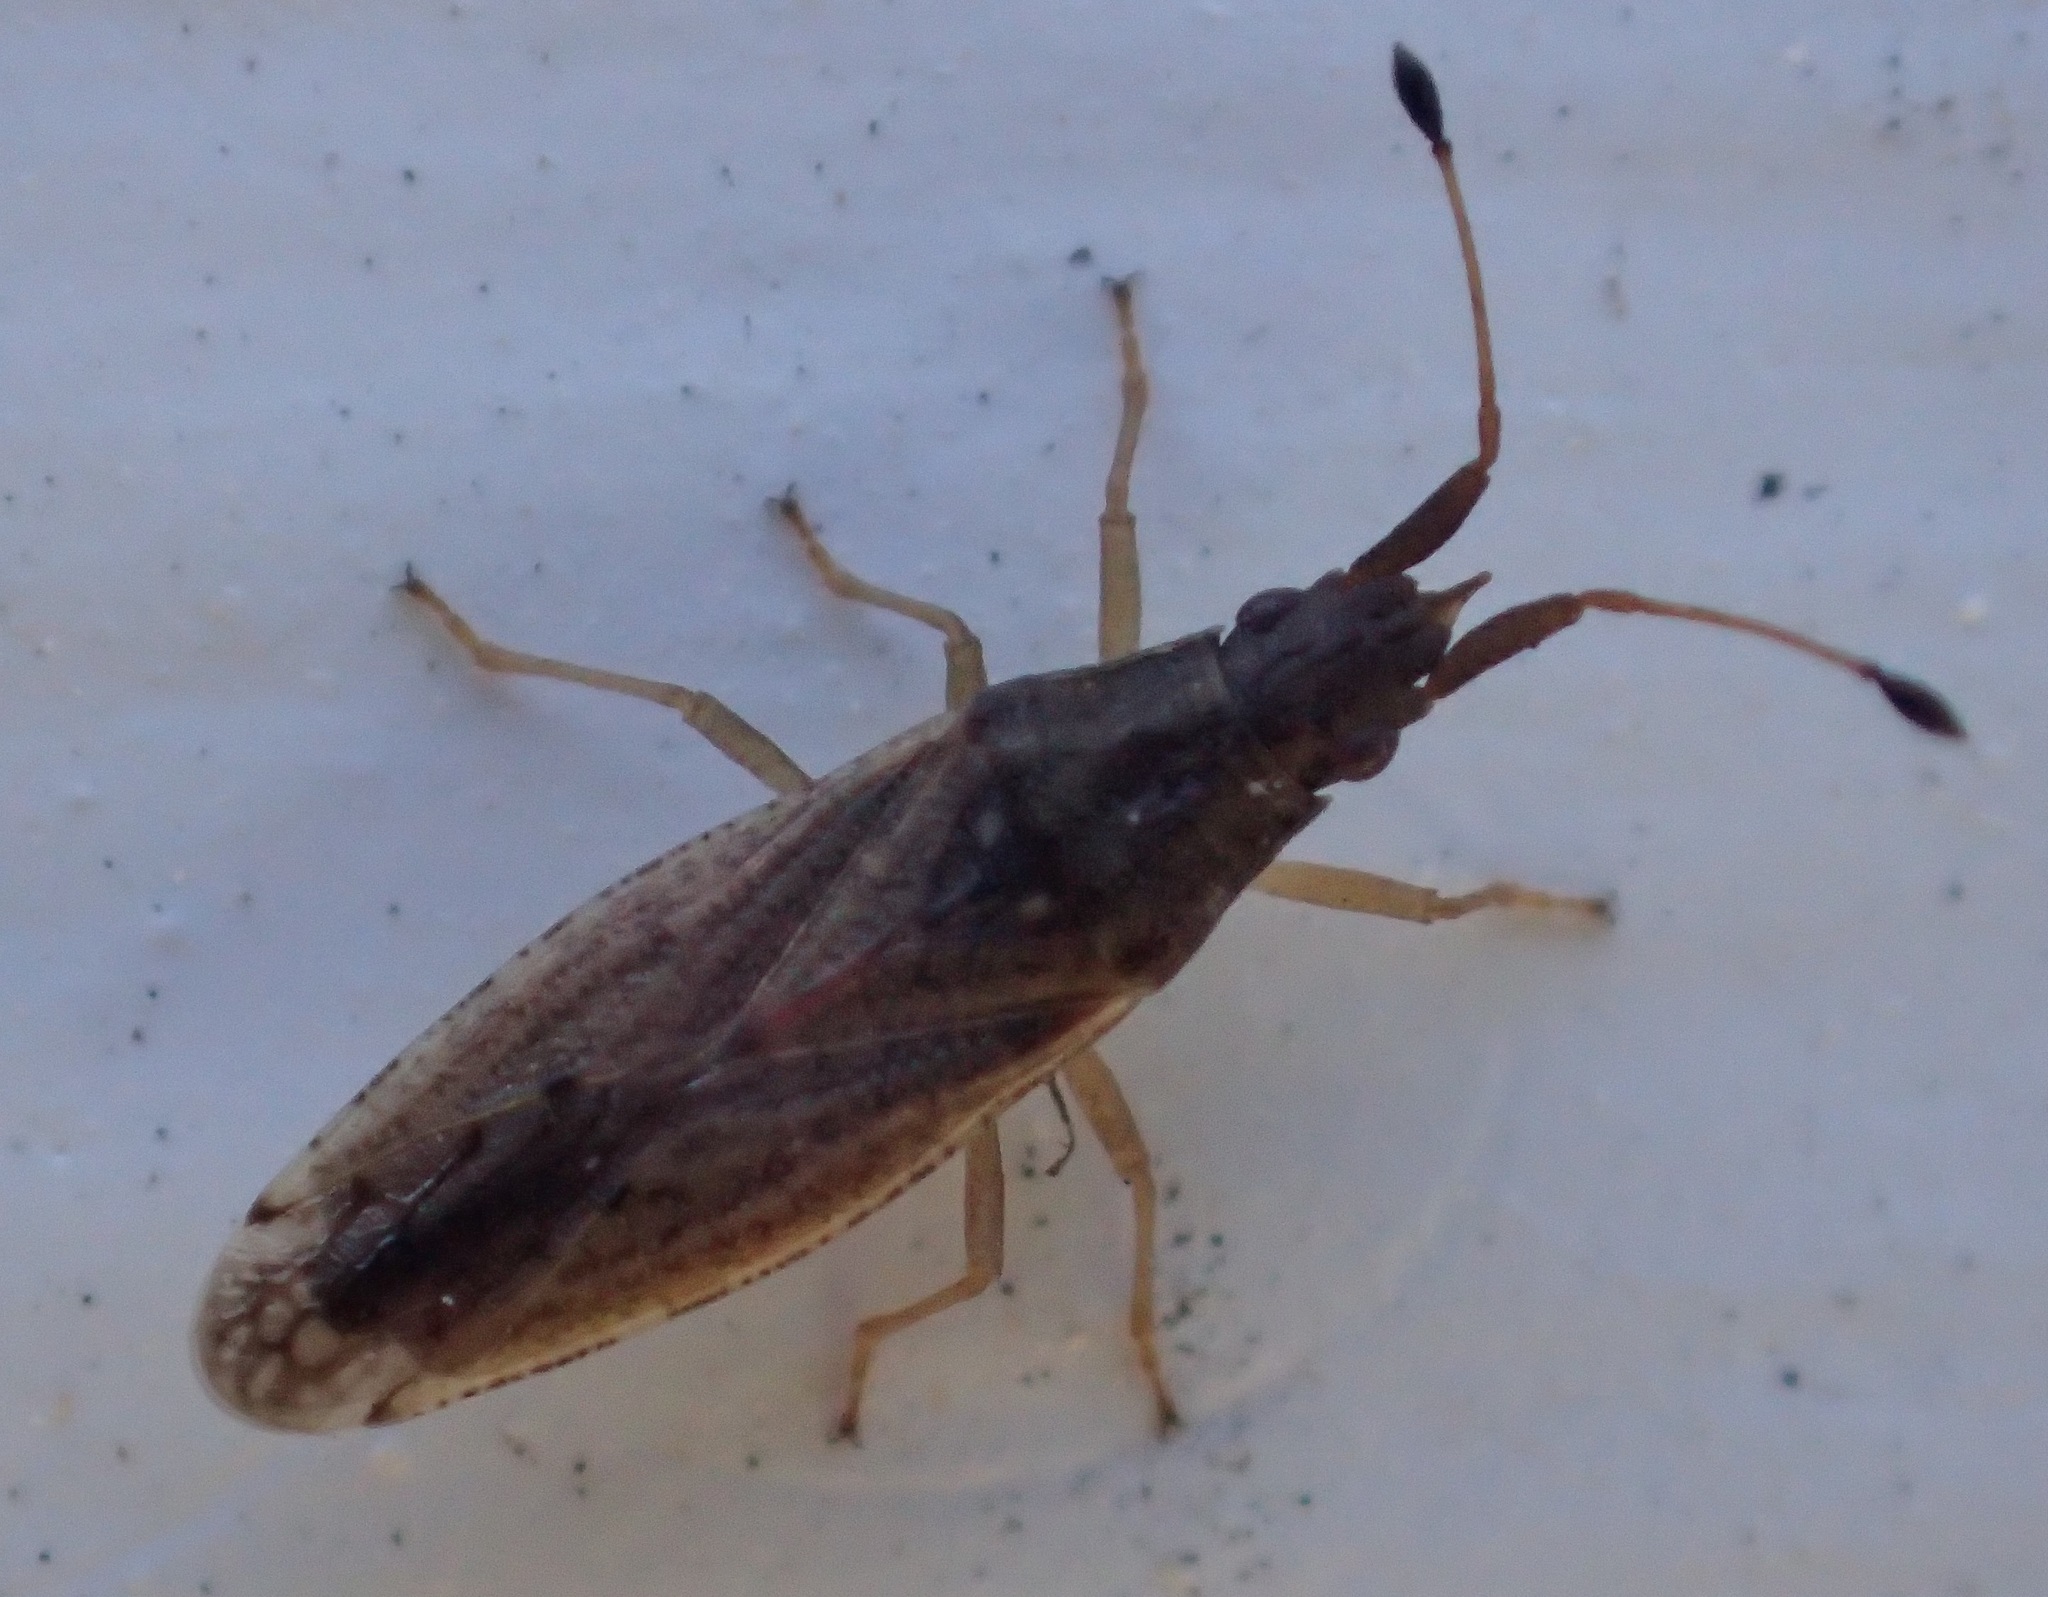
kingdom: Animalia
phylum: Arthropoda
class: Insecta
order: Hemiptera
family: Cryptorhamphidae
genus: Cryptorhamphus
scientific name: Cryptorhamphus orbus
